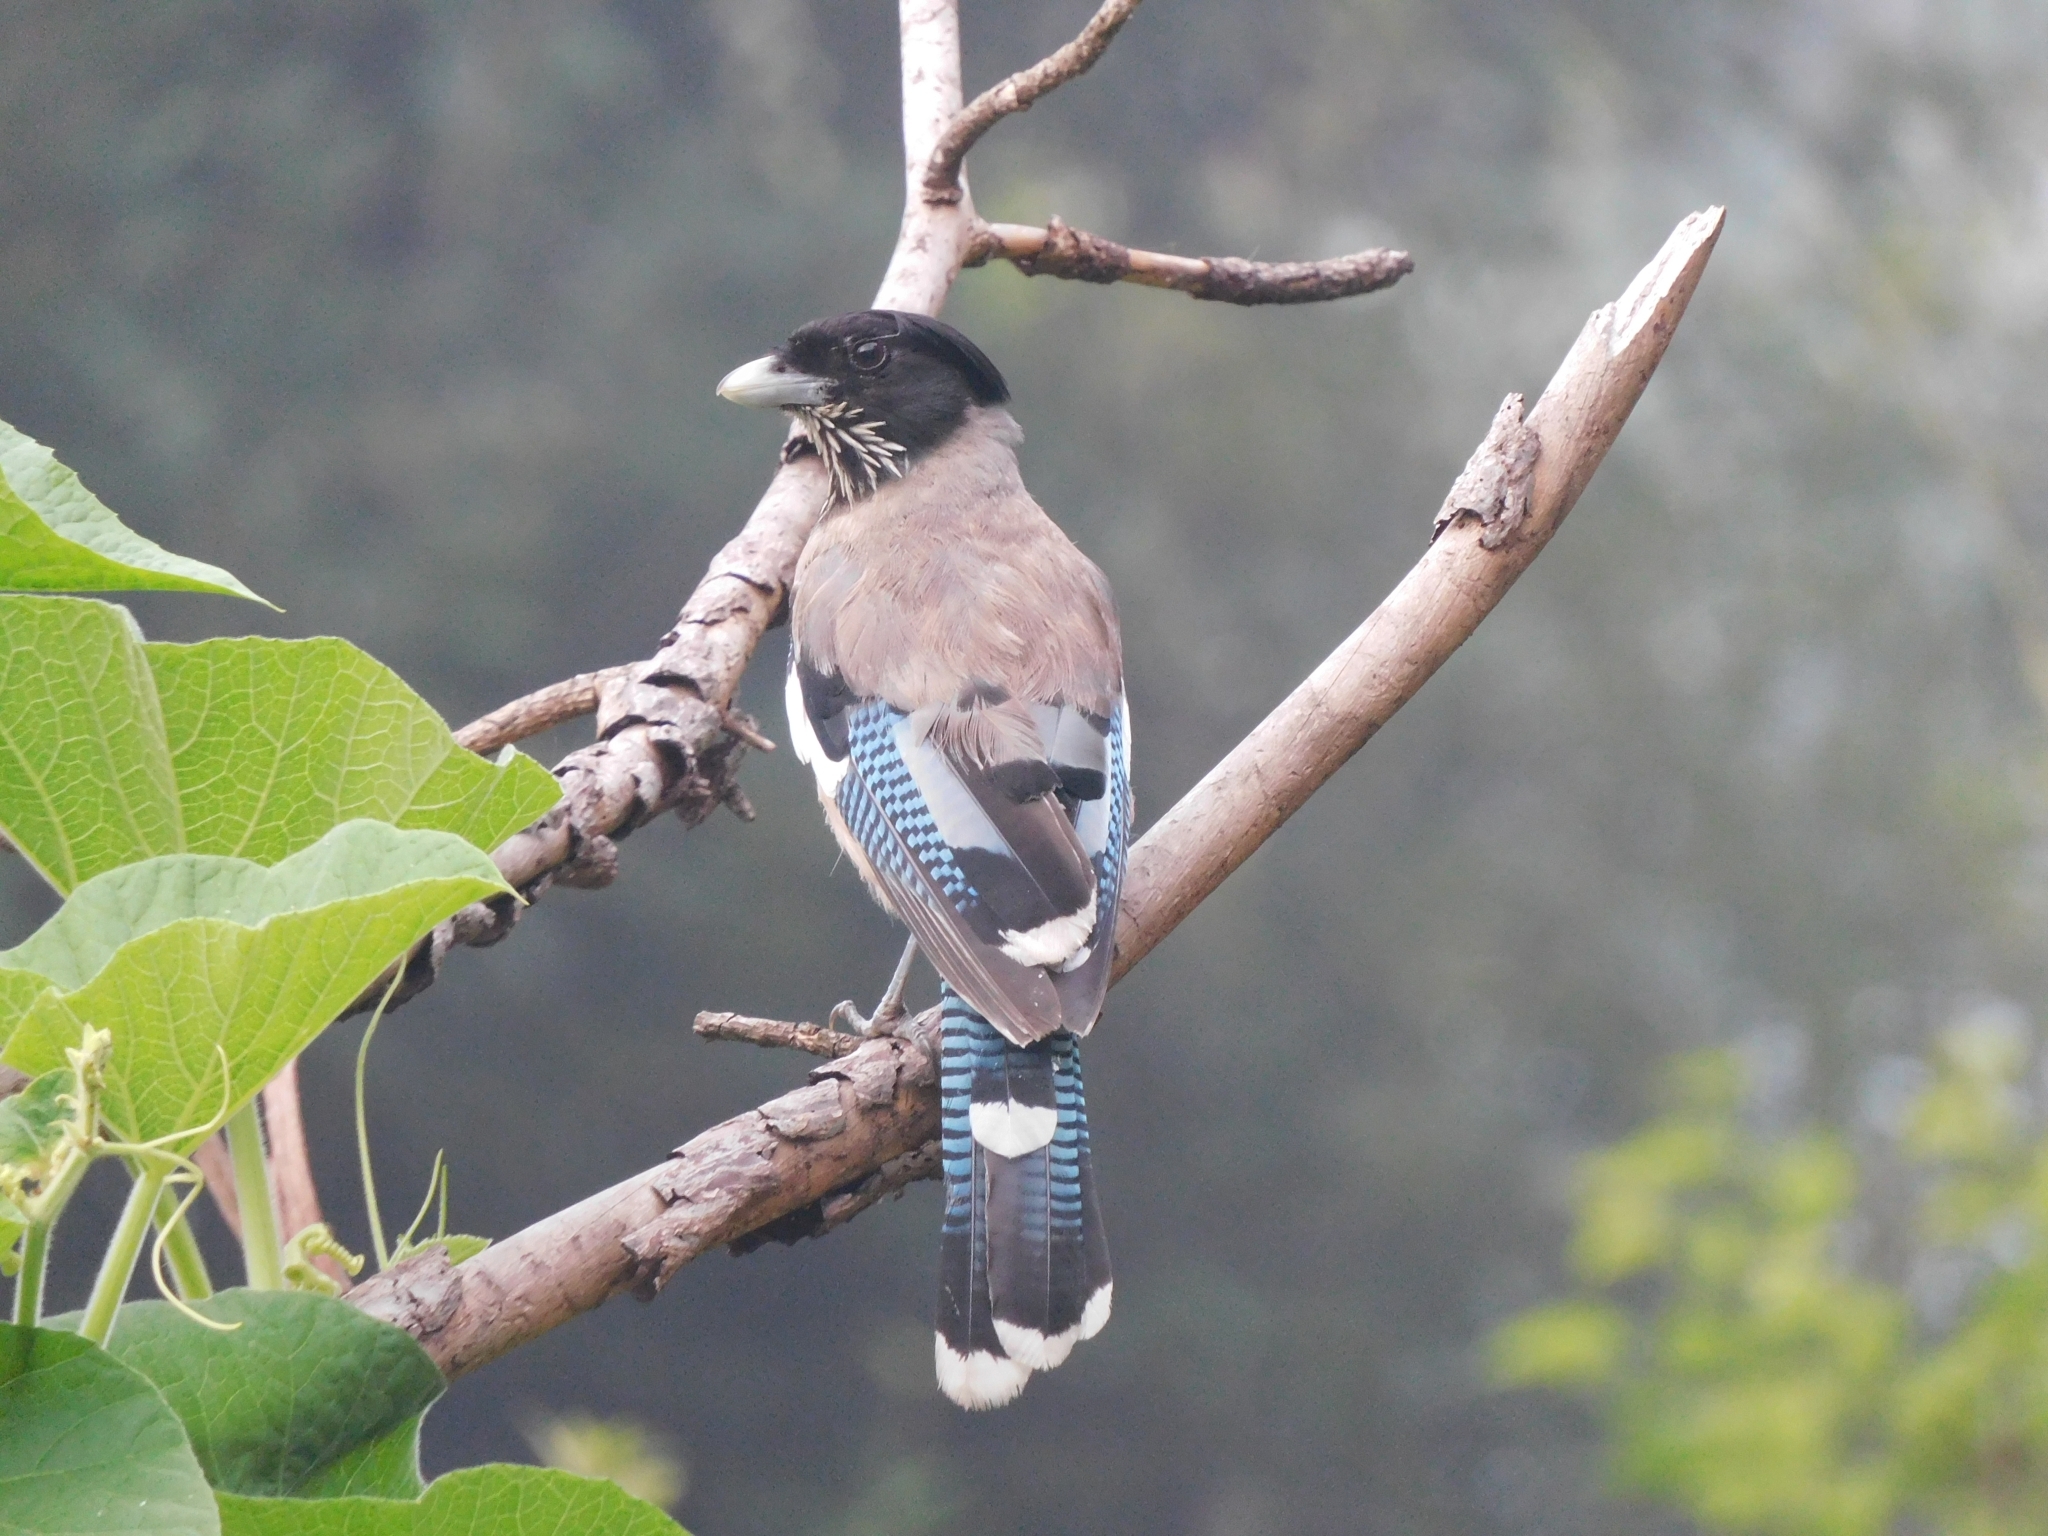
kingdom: Animalia
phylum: Chordata
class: Aves
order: Passeriformes
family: Corvidae
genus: Garrulus
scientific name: Garrulus lanceolatus
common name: Black-headed jay
